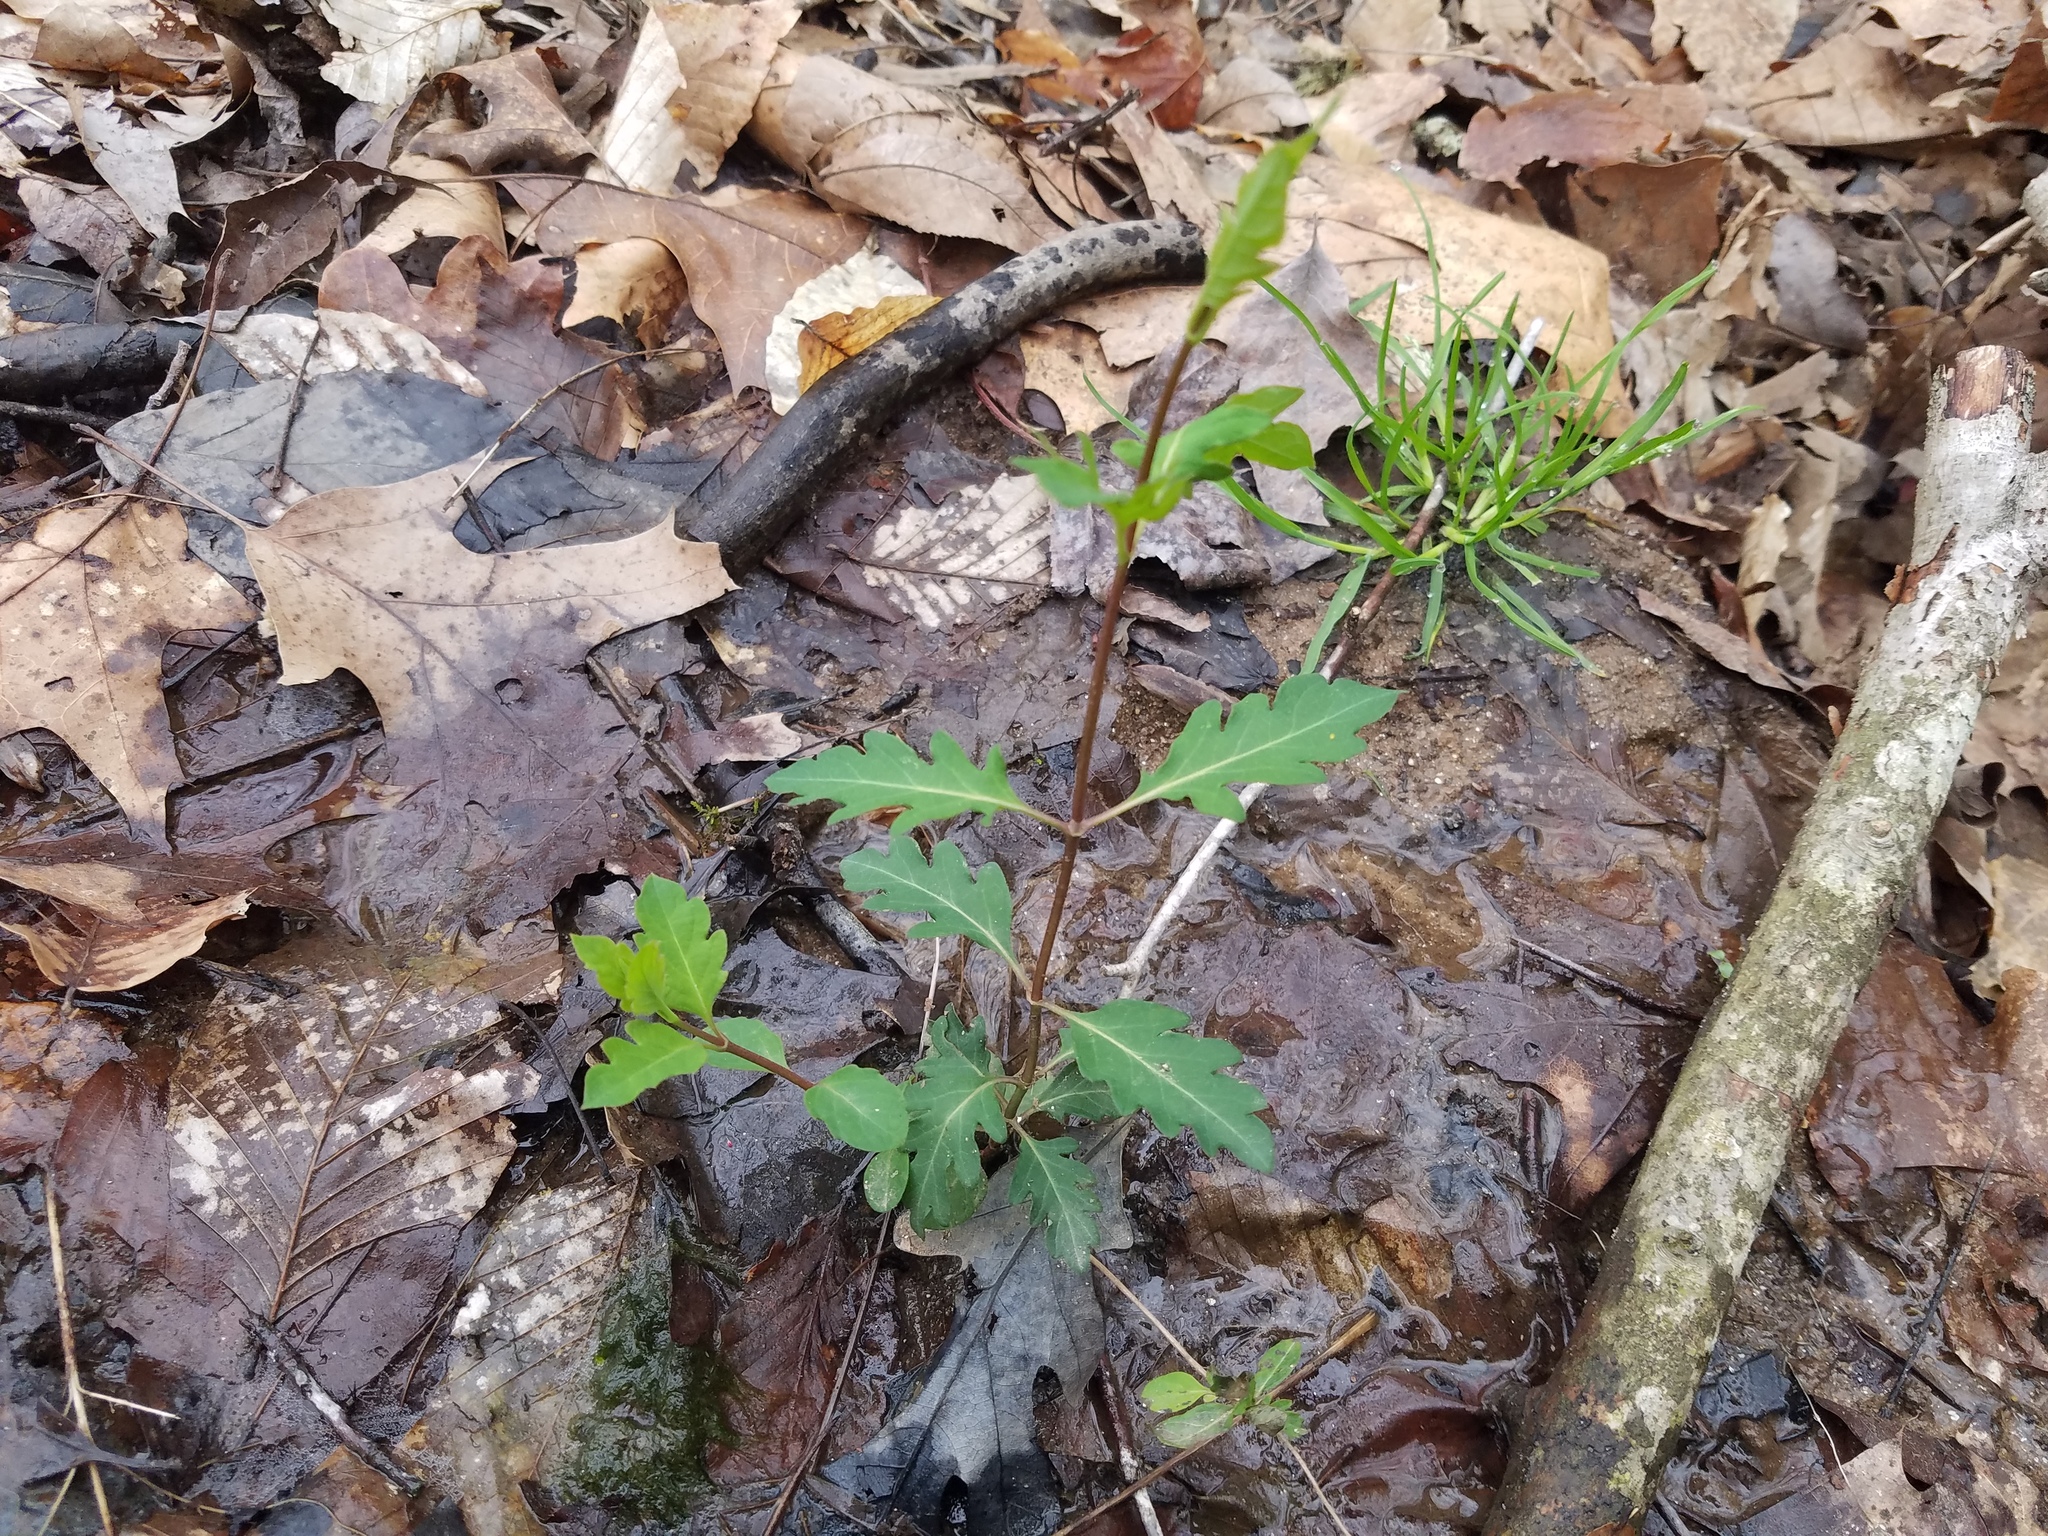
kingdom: Plantae
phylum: Tracheophyta
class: Magnoliopsida
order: Dipsacales
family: Caprifoliaceae
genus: Lonicera
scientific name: Lonicera japonica
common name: Japanese honeysuckle
